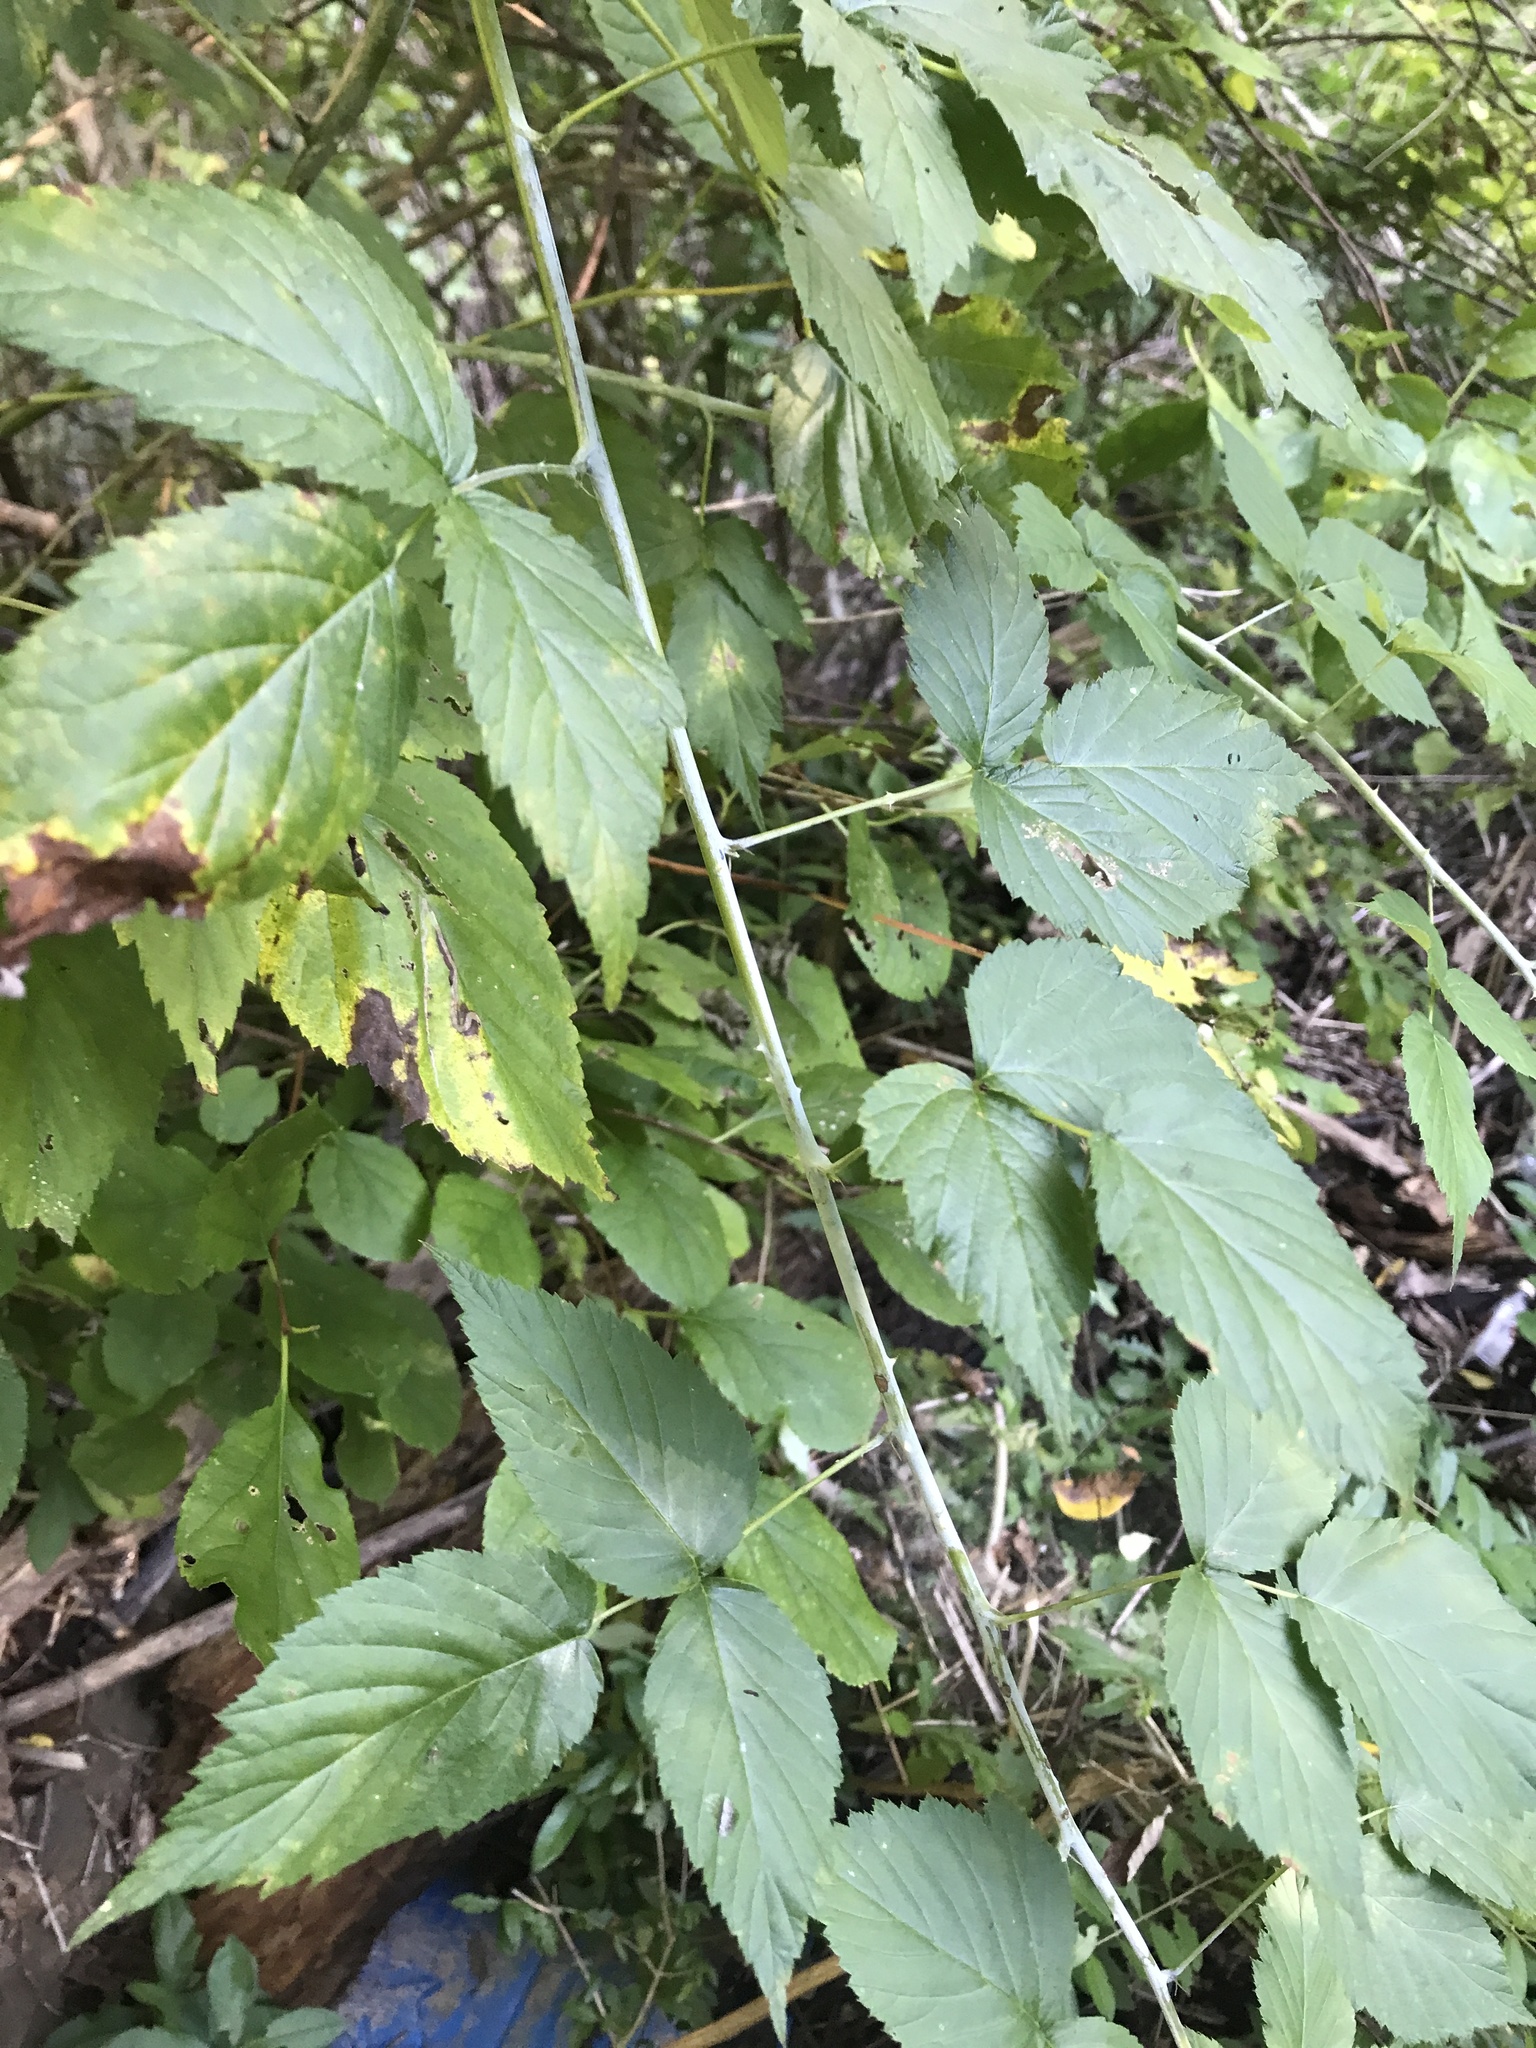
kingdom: Plantae
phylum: Tracheophyta
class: Magnoliopsida
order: Rosales
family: Rosaceae
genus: Rubus
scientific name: Rubus occidentalis
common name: Black raspberry
